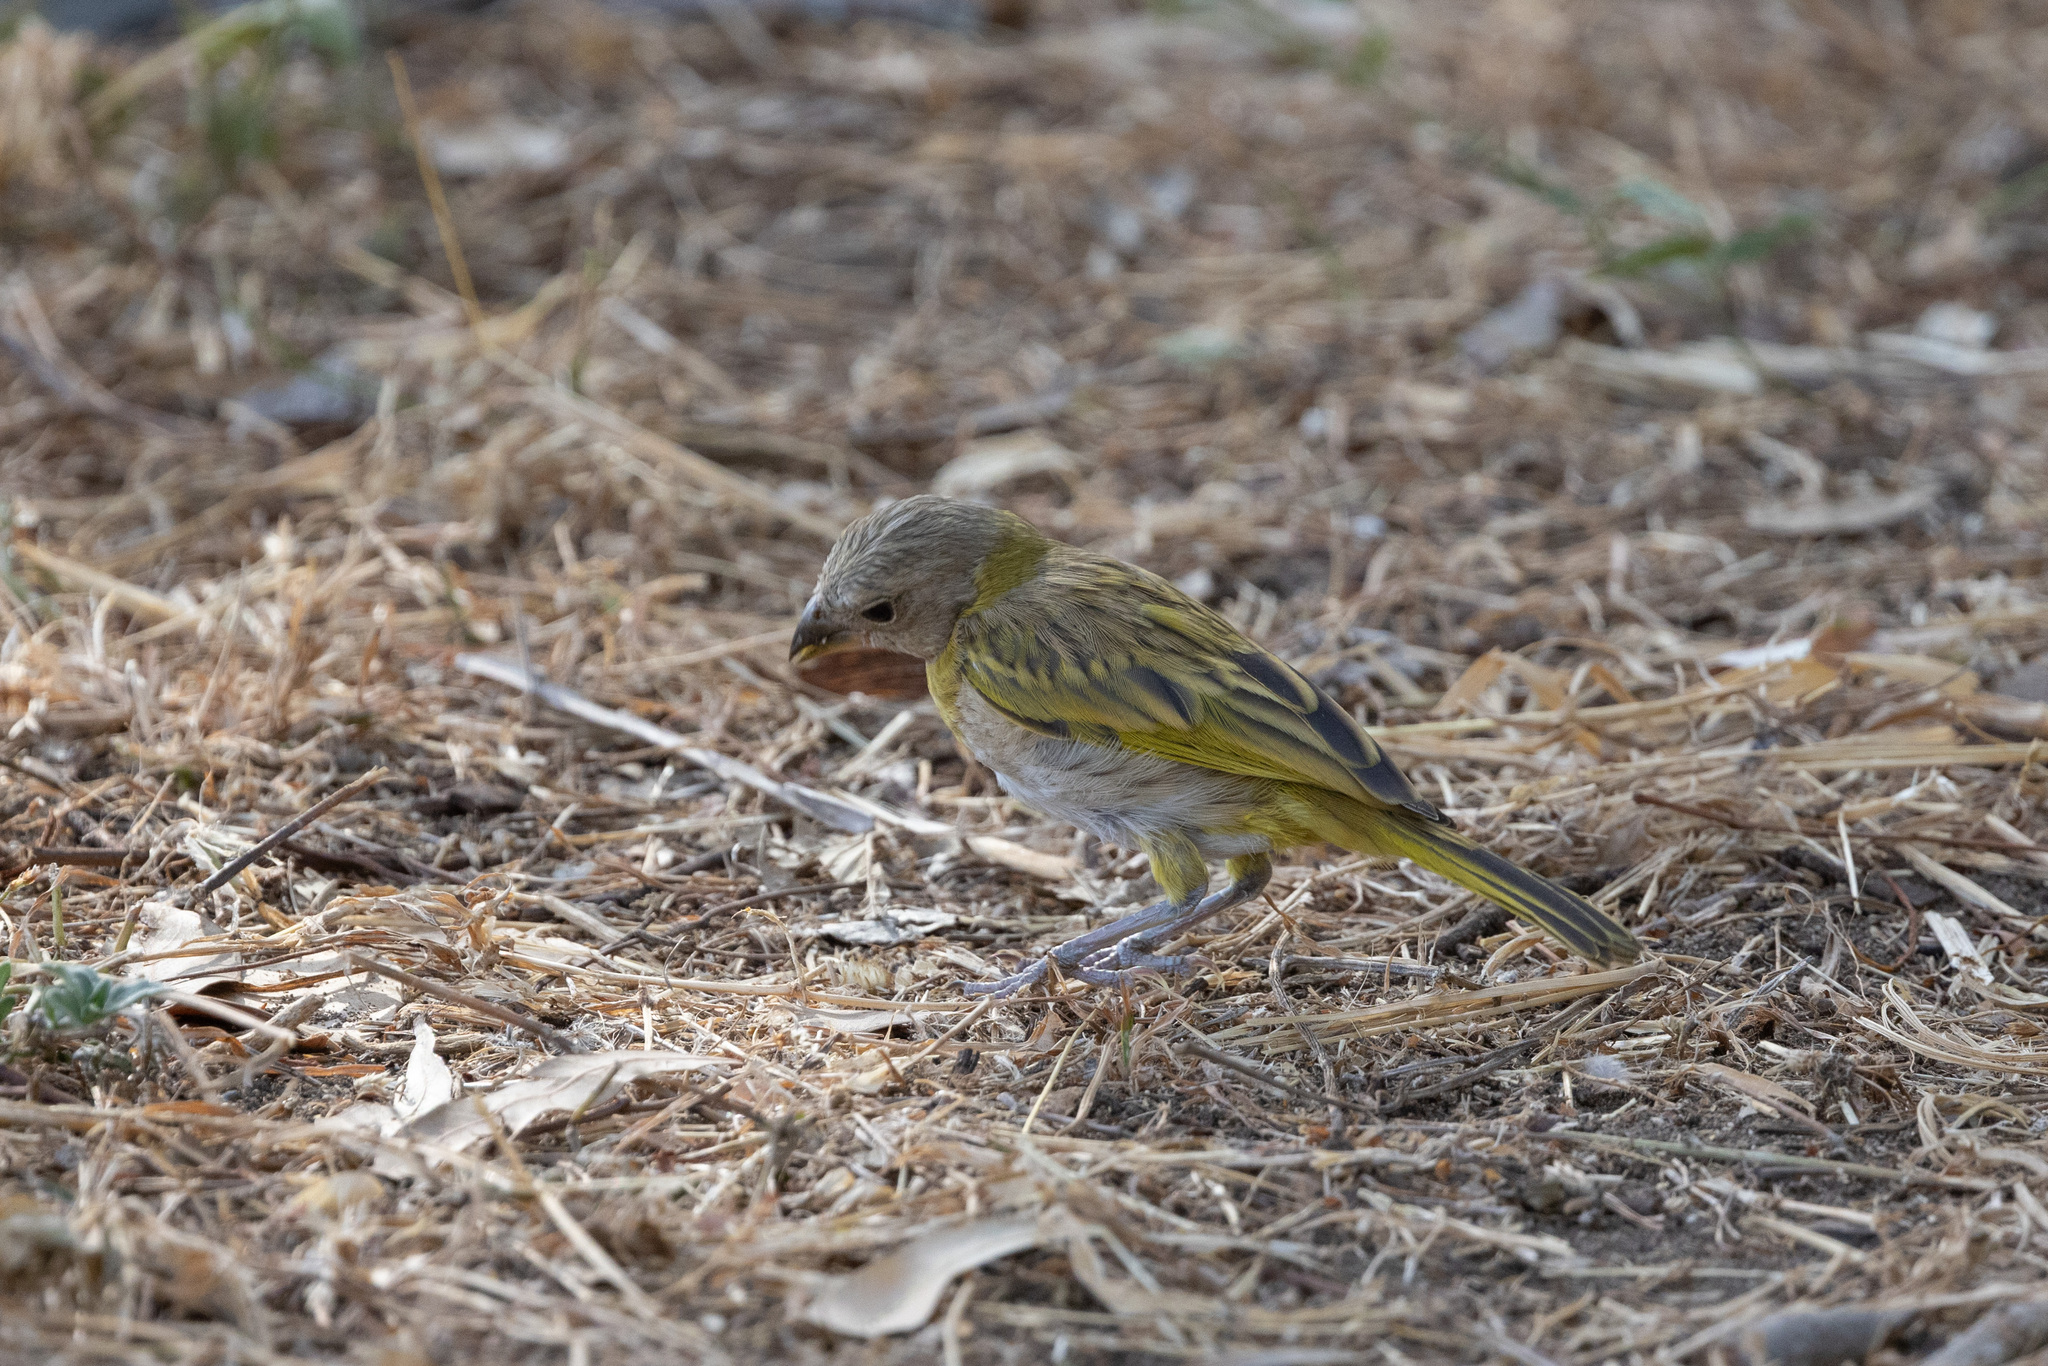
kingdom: Animalia
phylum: Chordata
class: Aves
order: Passeriformes
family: Thraupidae
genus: Sicalis
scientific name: Sicalis flaveola
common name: Saffron finch
